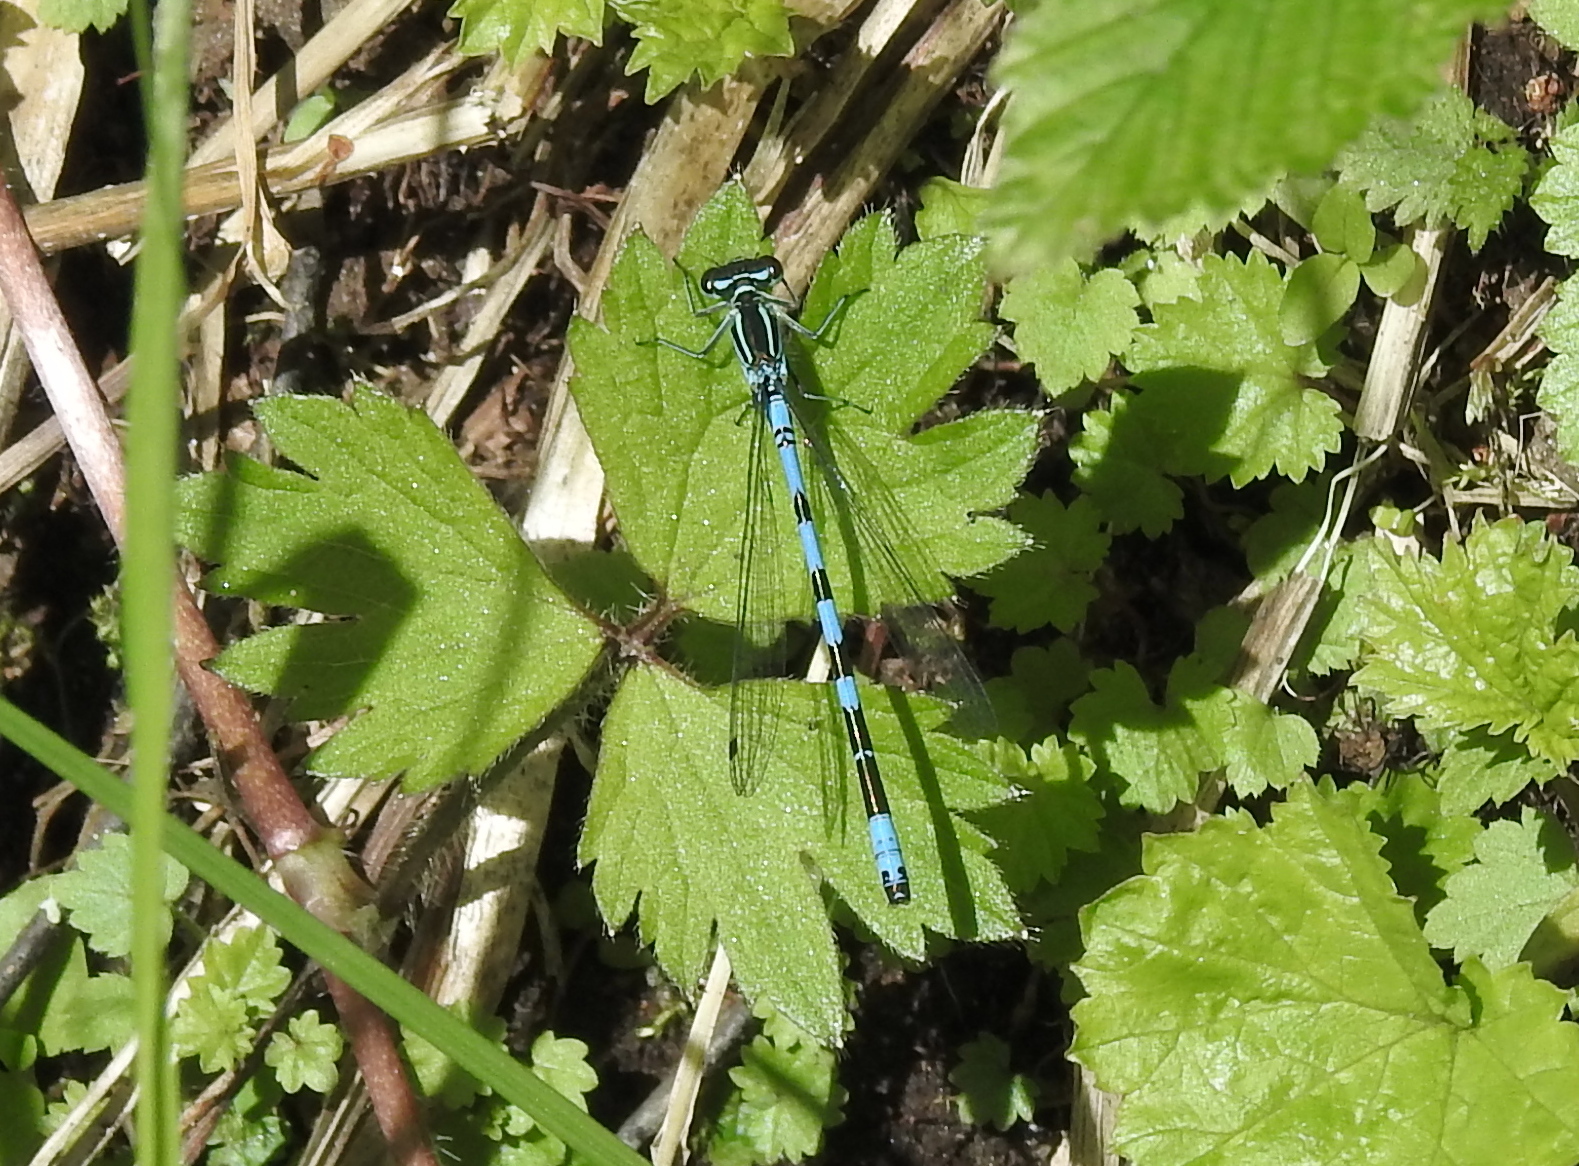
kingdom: Animalia
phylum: Arthropoda
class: Insecta
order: Odonata
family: Coenagrionidae
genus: Coenagrion
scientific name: Coenagrion hastulatum
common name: Spearhead bluet
